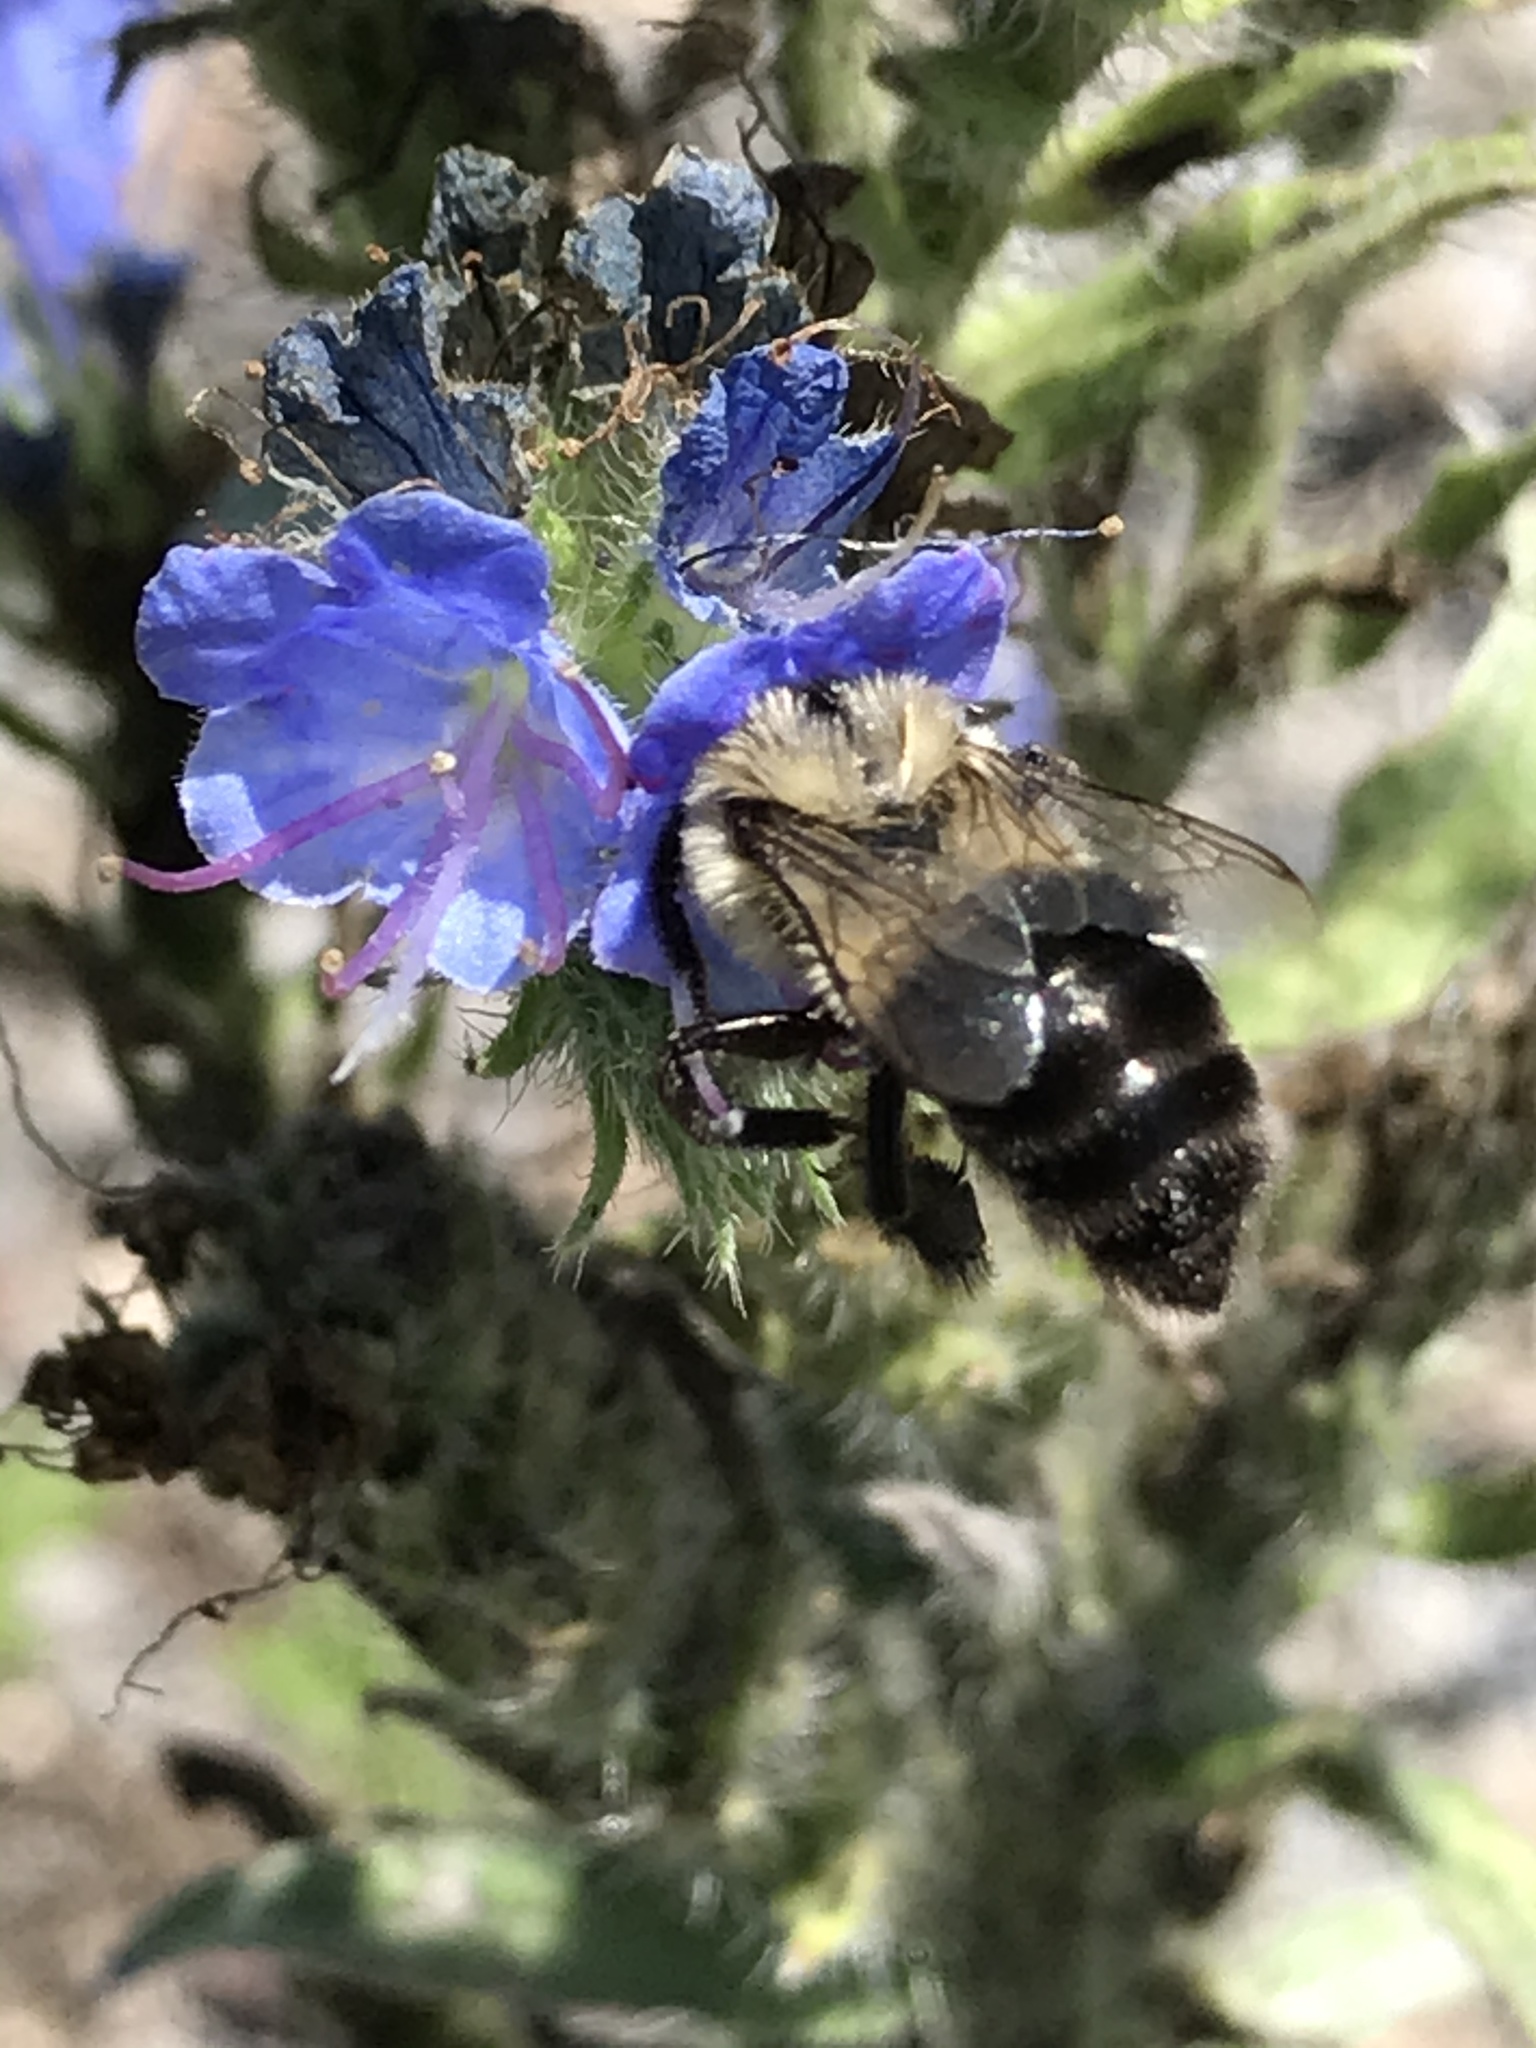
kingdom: Plantae
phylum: Tracheophyta
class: Magnoliopsida
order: Boraginales
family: Boraginaceae
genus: Echium
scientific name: Echium vulgare
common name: Common viper's bugloss
